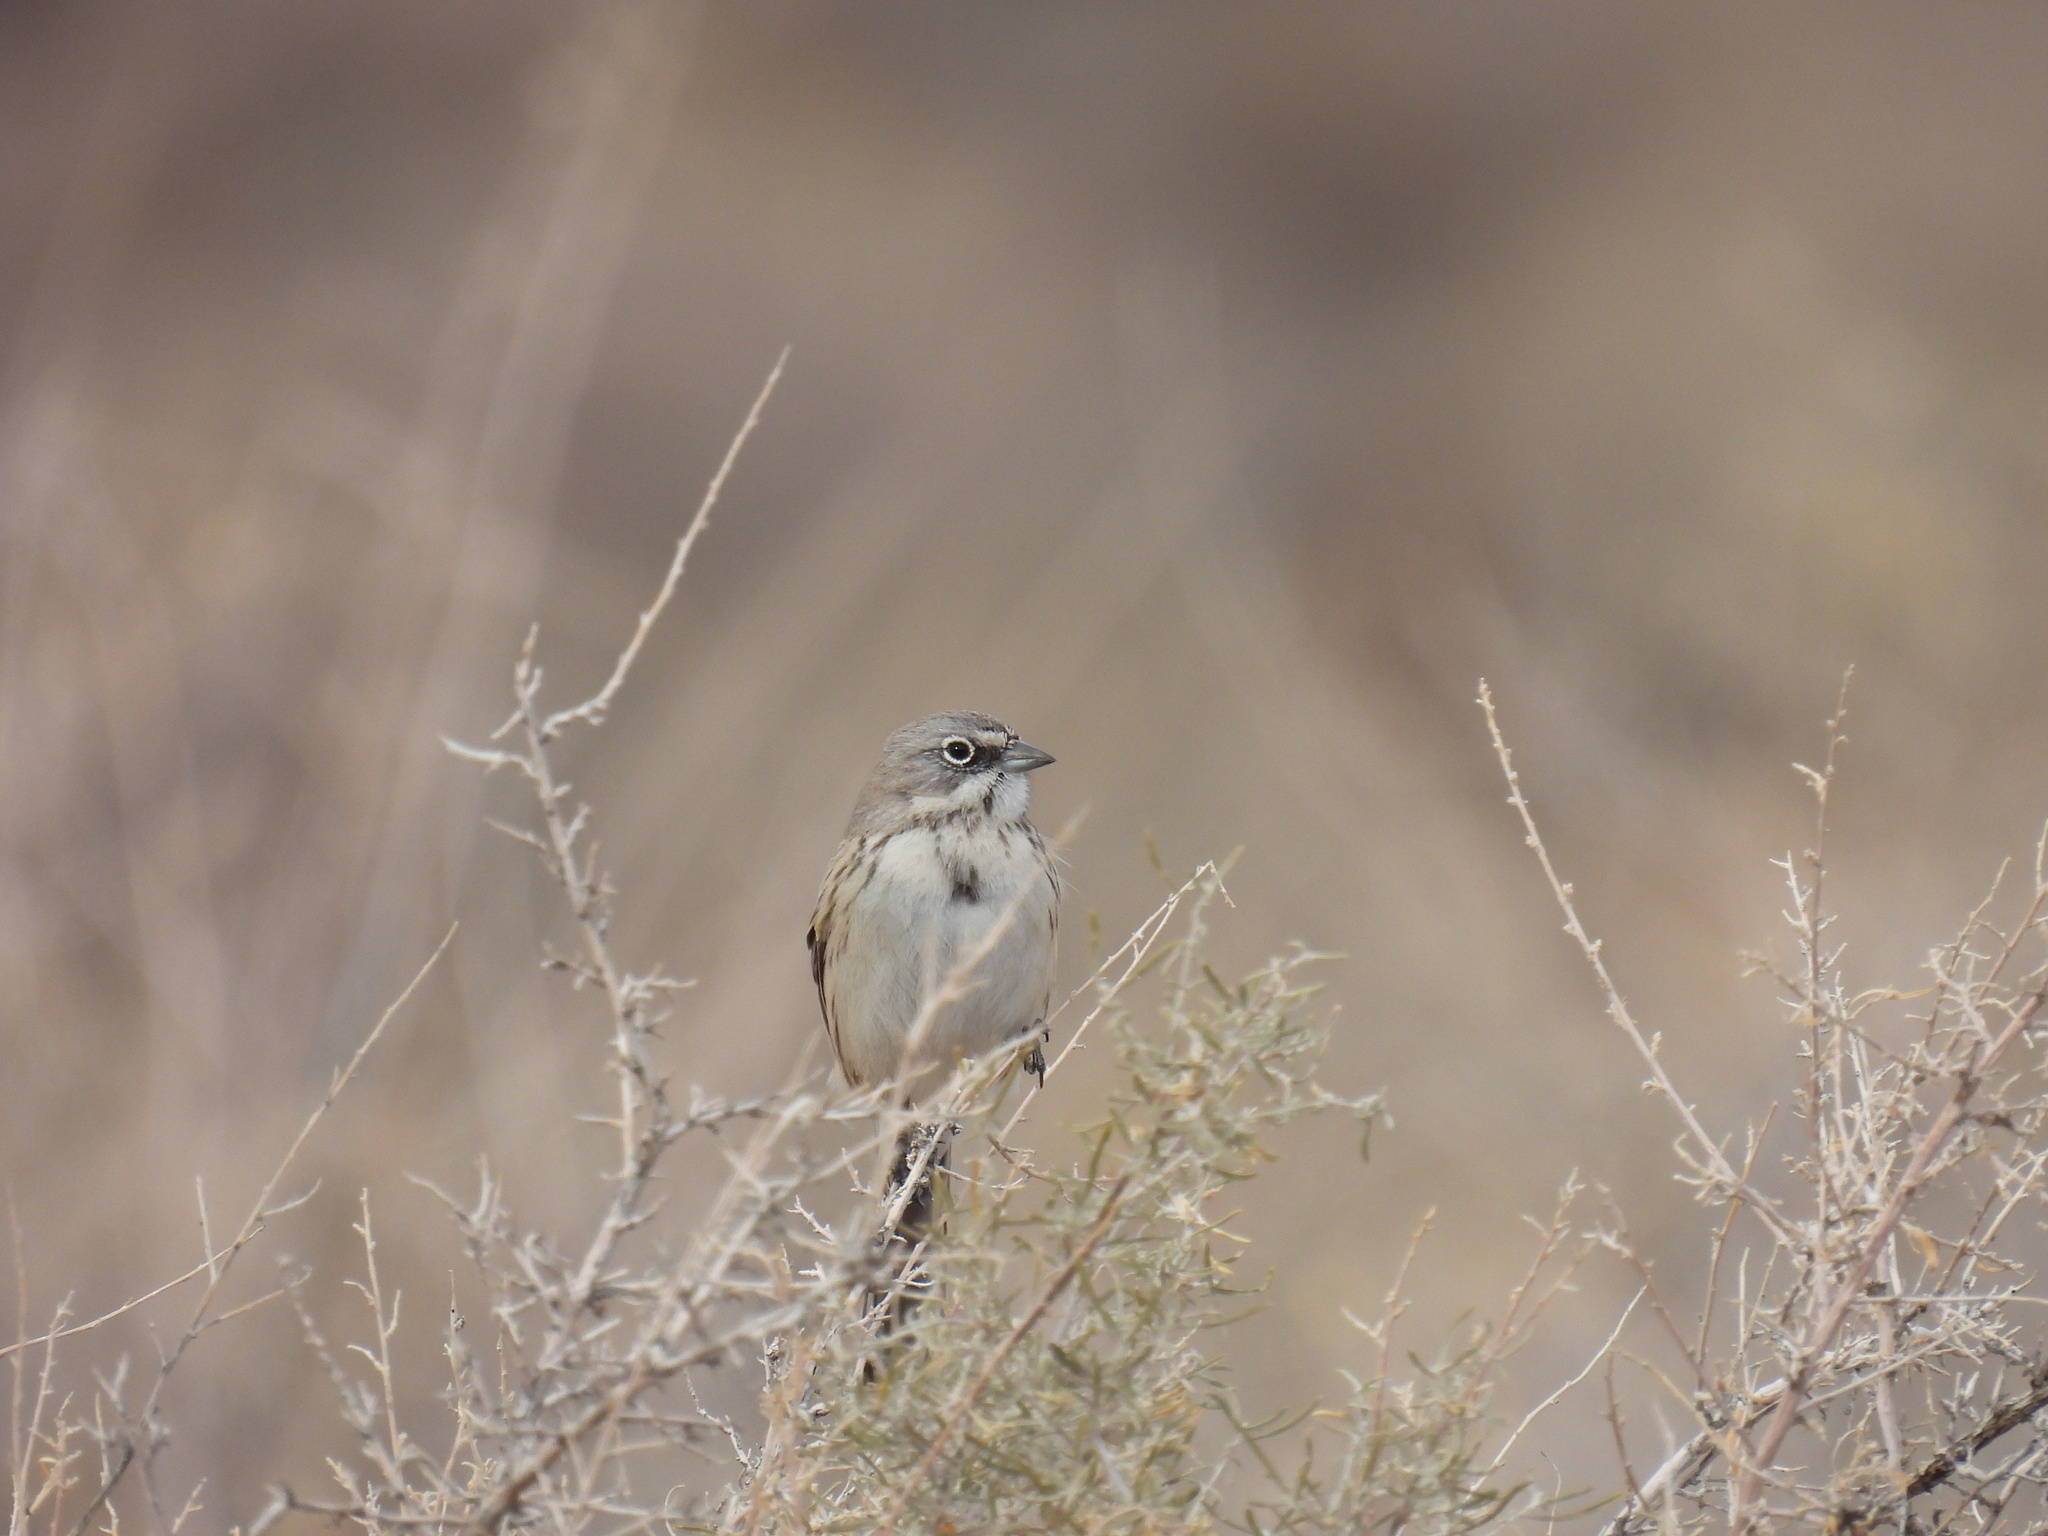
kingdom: Animalia
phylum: Chordata
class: Aves
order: Passeriformes
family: Passerellidae
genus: Artemisiospiza
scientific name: Artemisiospiza nevadensis
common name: Sagebrush sparrow
